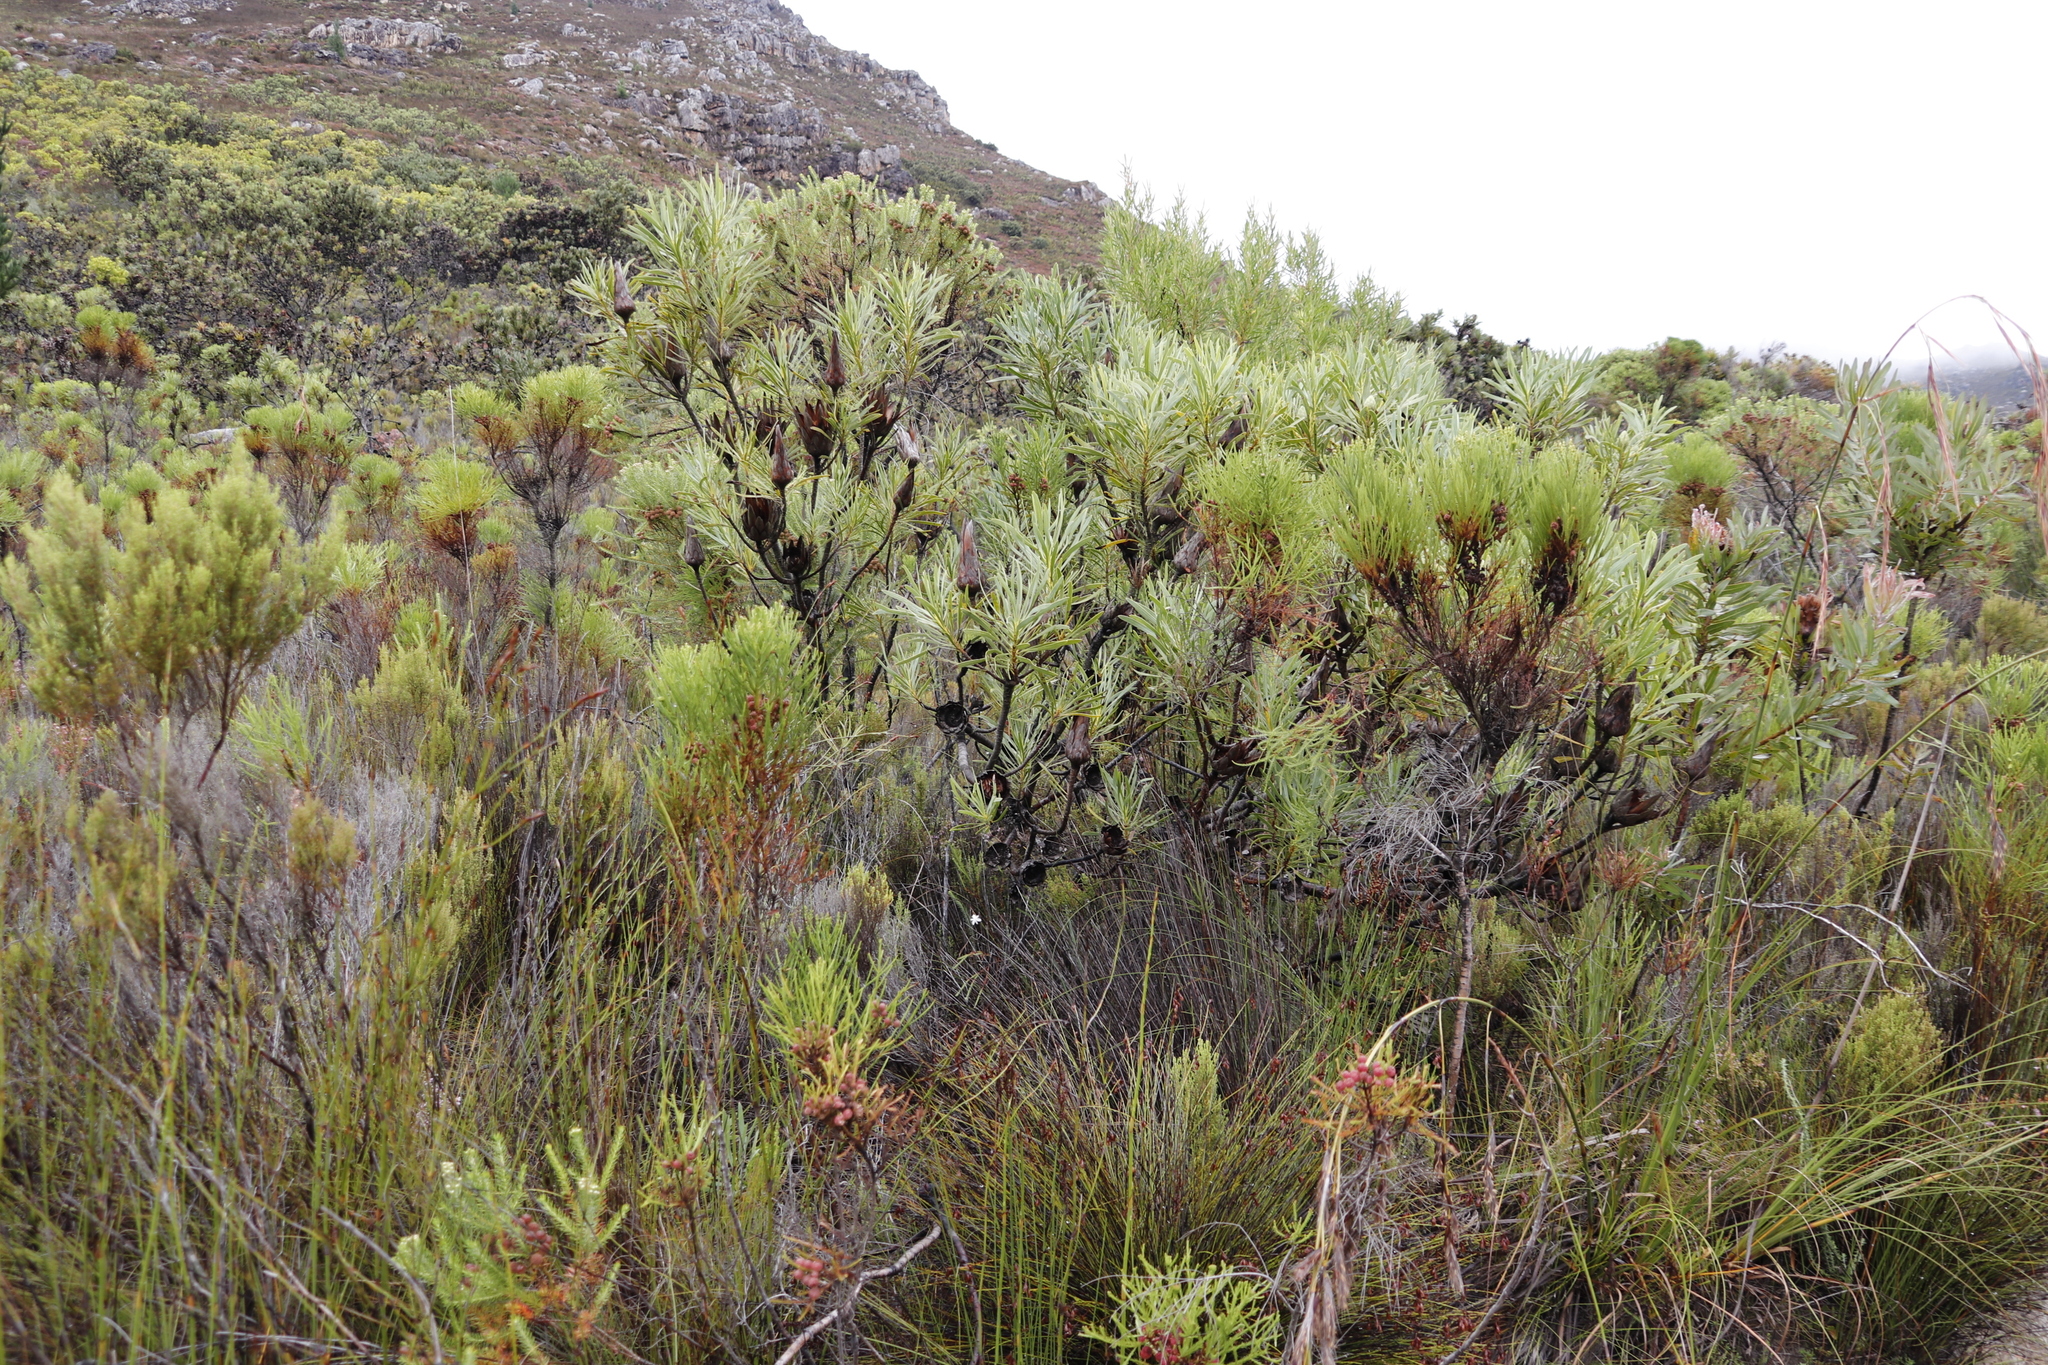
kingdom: Plantae
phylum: Tracheophyta
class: Magnoliopsida
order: Proteales
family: Proteaceae
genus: Protea
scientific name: Protea repens
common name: Sugarbush
